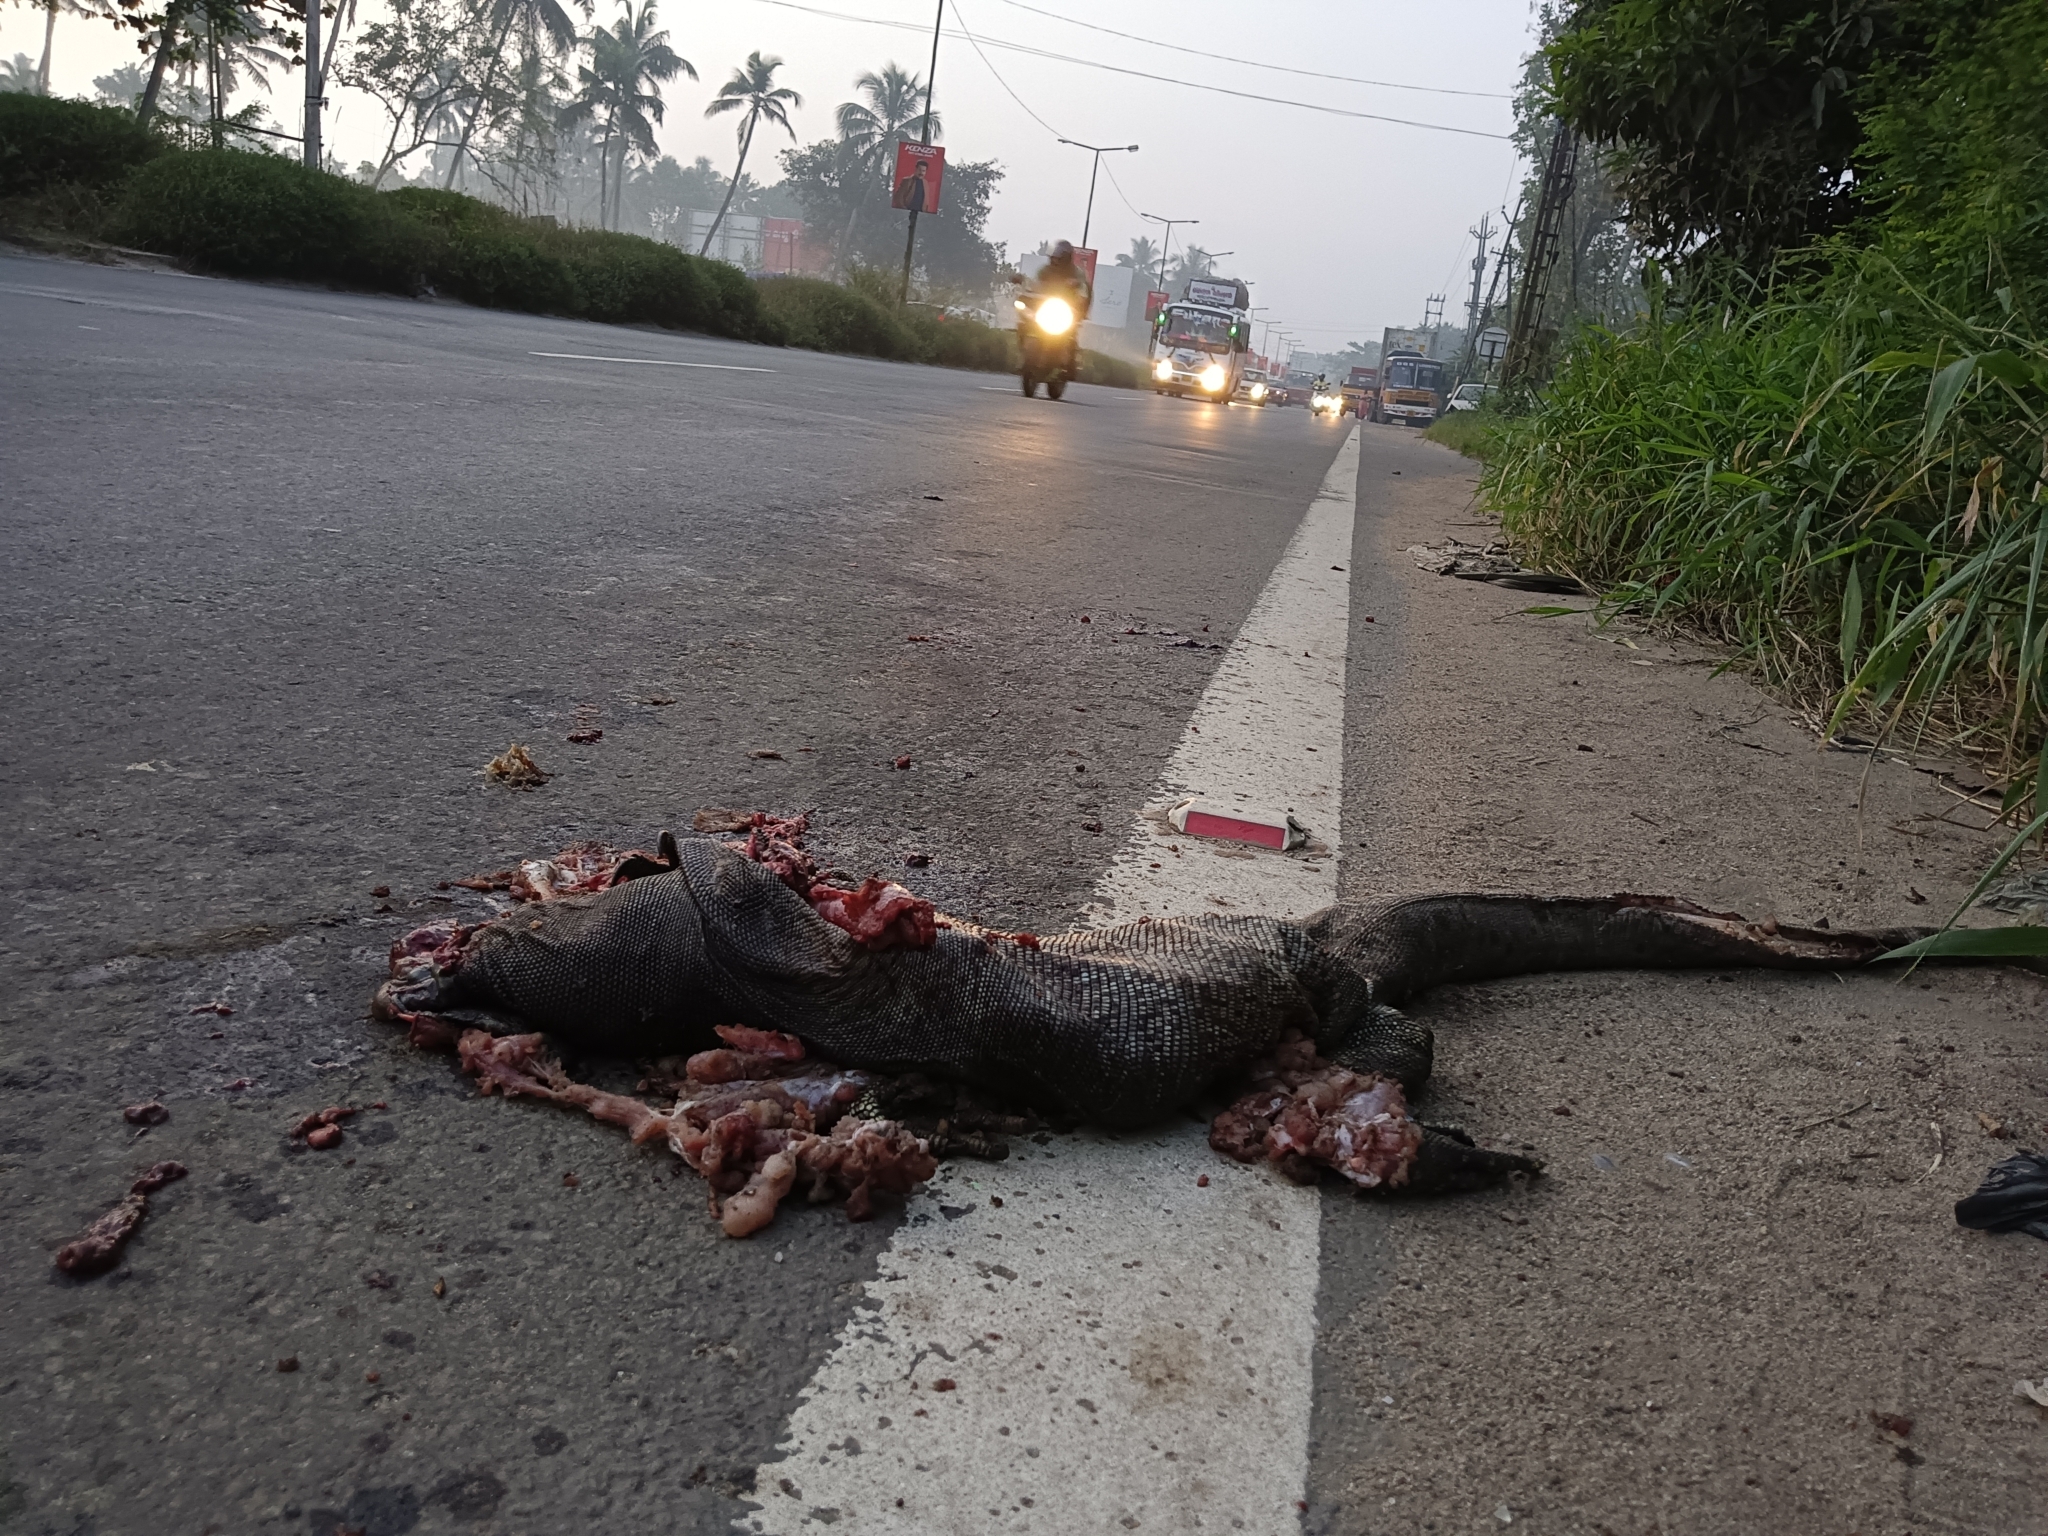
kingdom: Animalia
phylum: Chordata
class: Squamata
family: Varanidae
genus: Varanus
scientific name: Varanus bengalensis
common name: Bengal monitor
